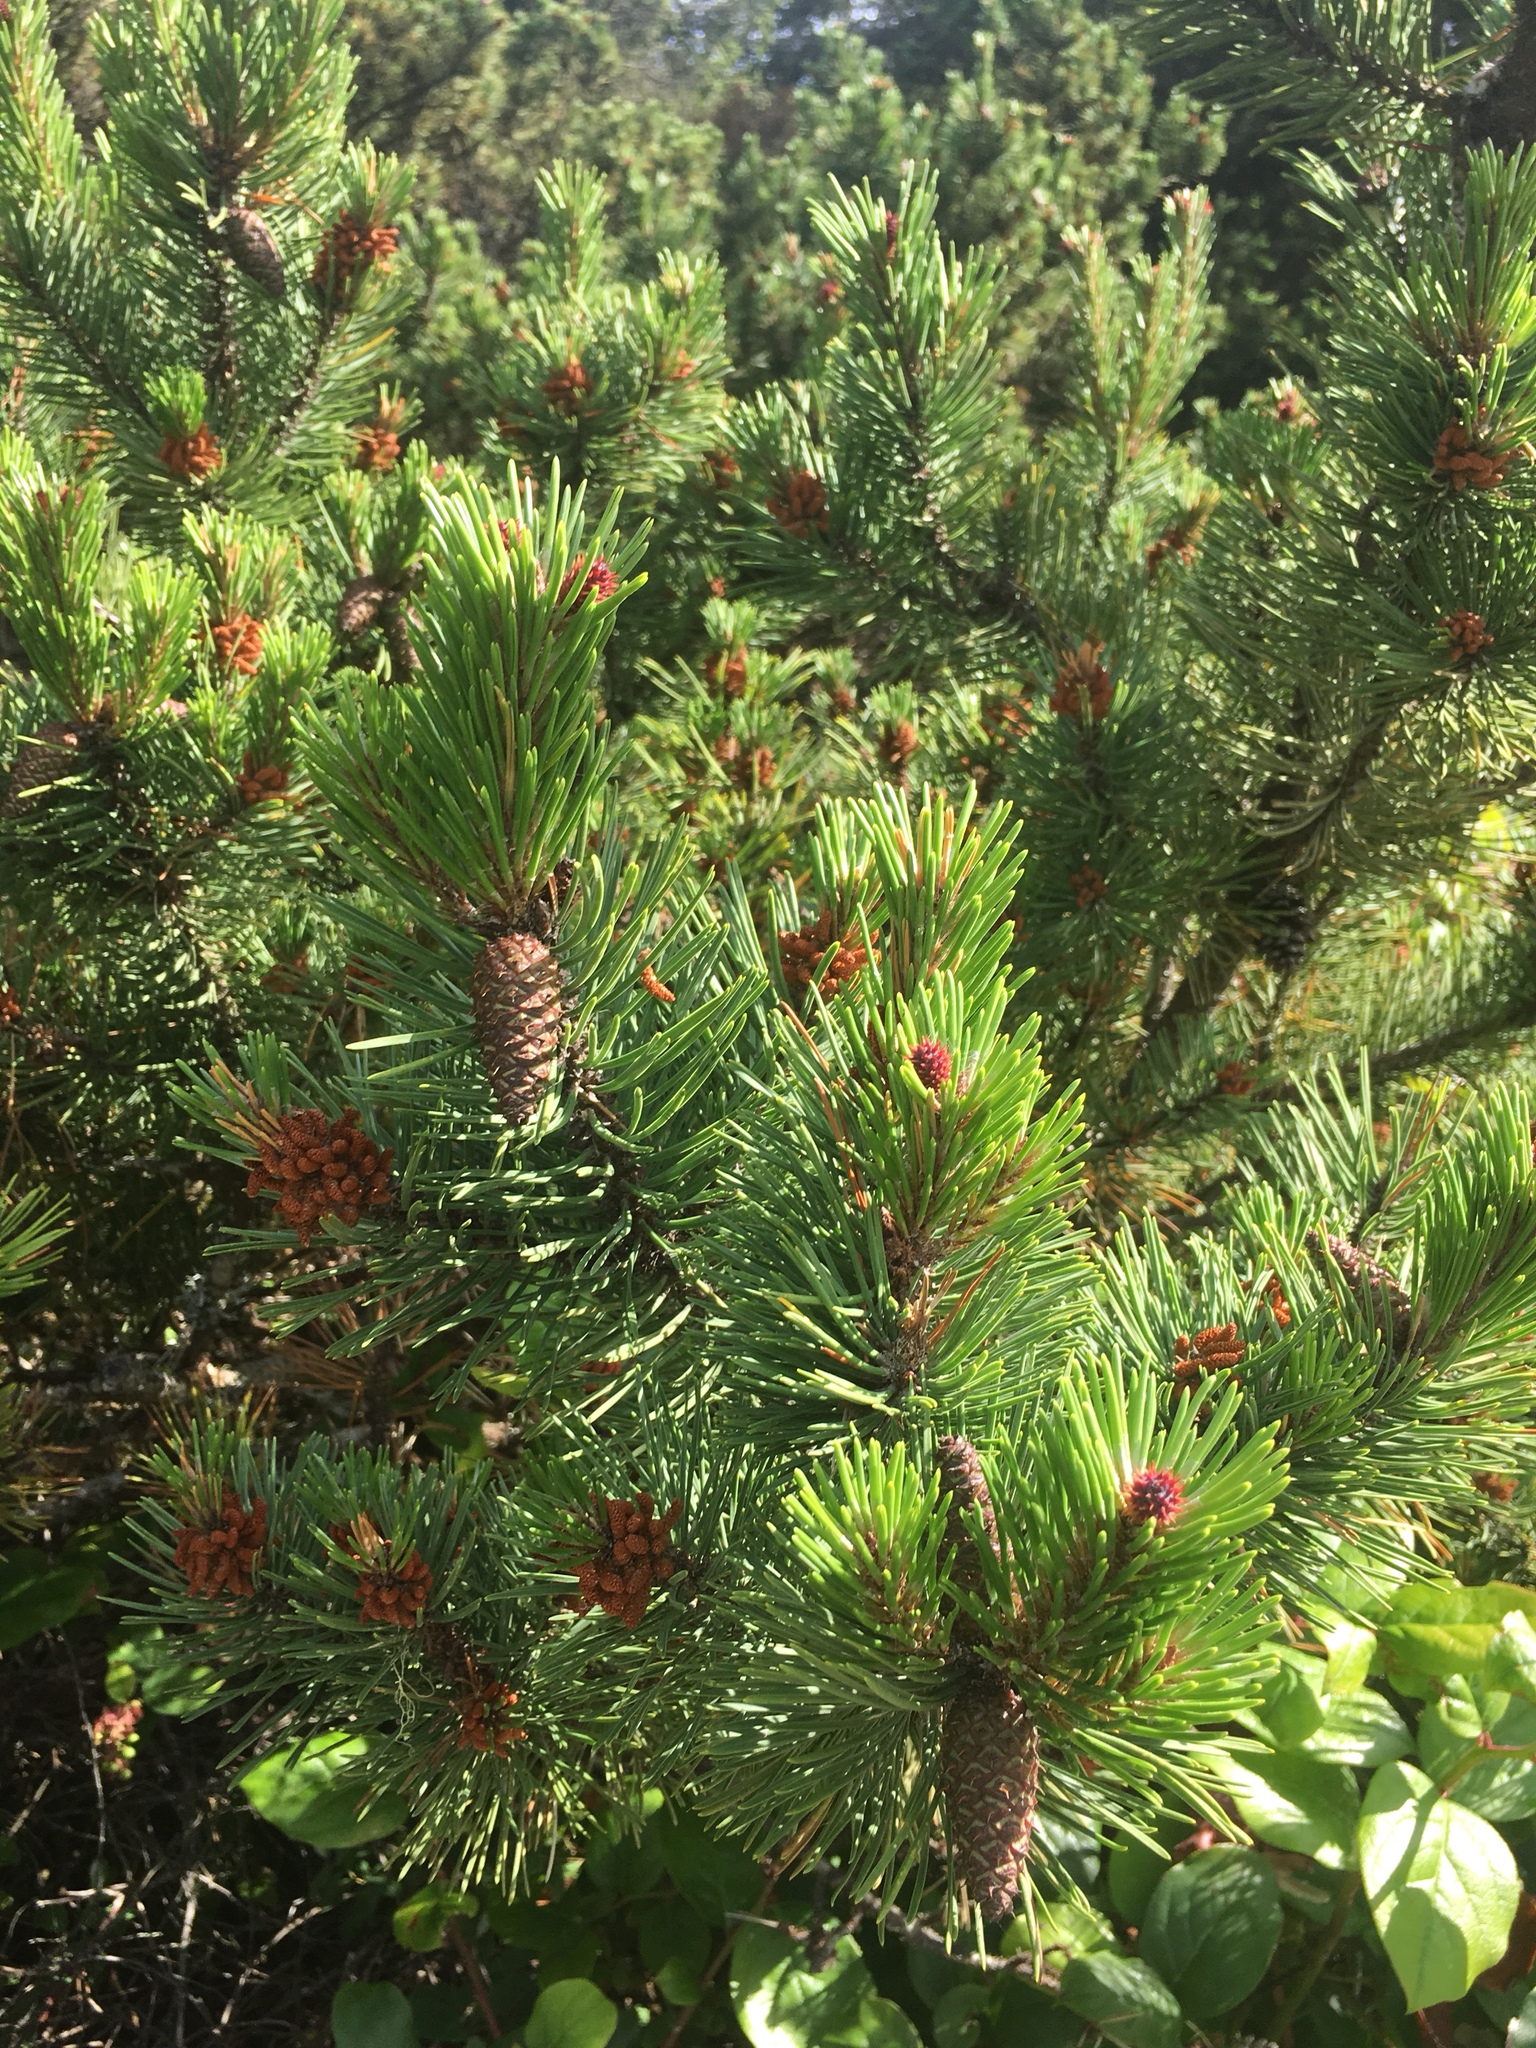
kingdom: Plantae
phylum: Tracheophyta
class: Pinopsida
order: Pinales
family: Pinaceae
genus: Pinus
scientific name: Pinus contorta
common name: Lodgepole pine
